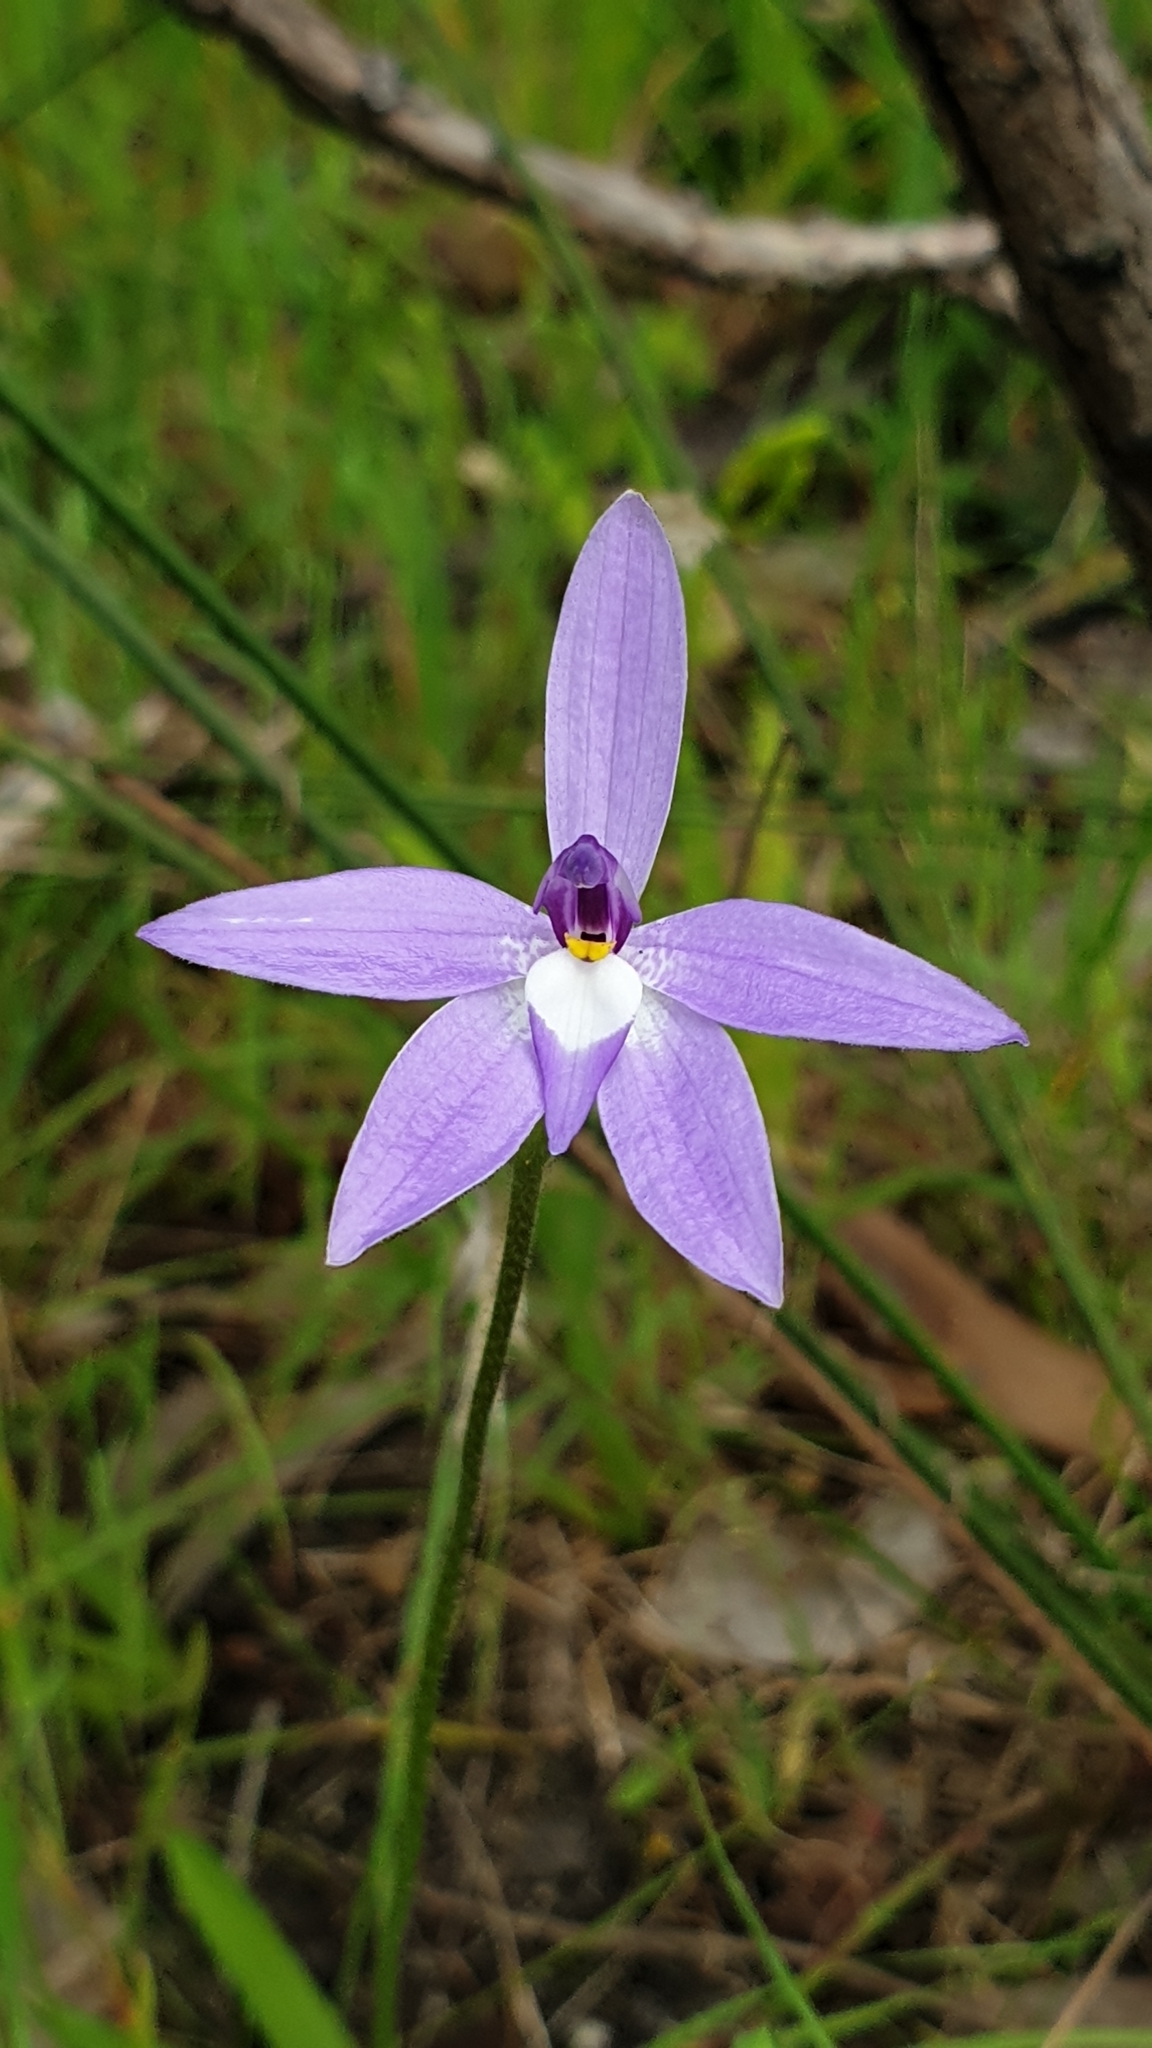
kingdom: Plantae
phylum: Tracheophyta
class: Liliopsida
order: Asparagales
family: Orchidaceae
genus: Caladenia
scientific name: Caladenia major
